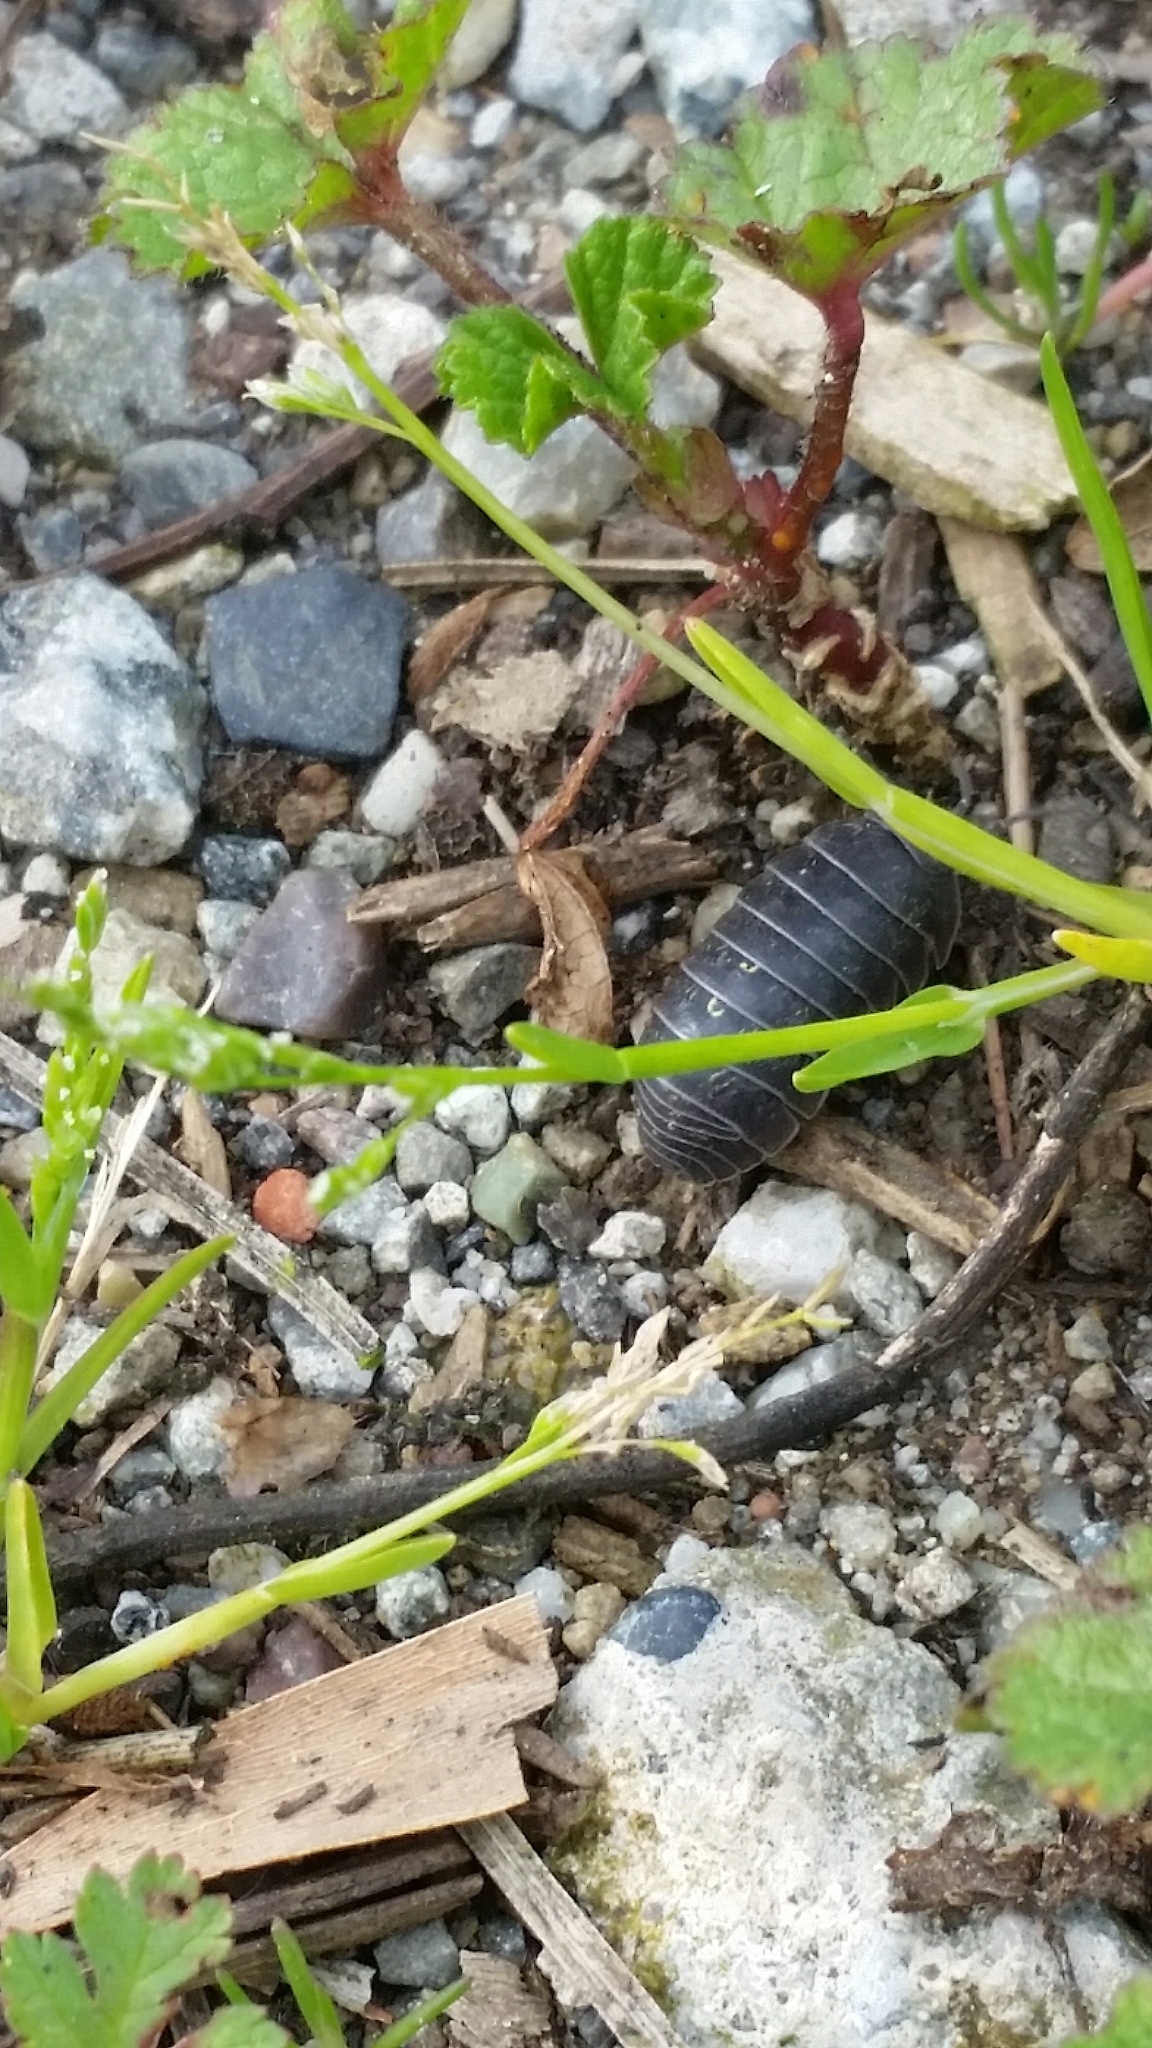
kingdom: Animalia
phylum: Arthropoda
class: Malacostraca
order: Isopoda
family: Armadillidiidae
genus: Armadillidium
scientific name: Armadillidium vulgare
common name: Common pill woodlouse
